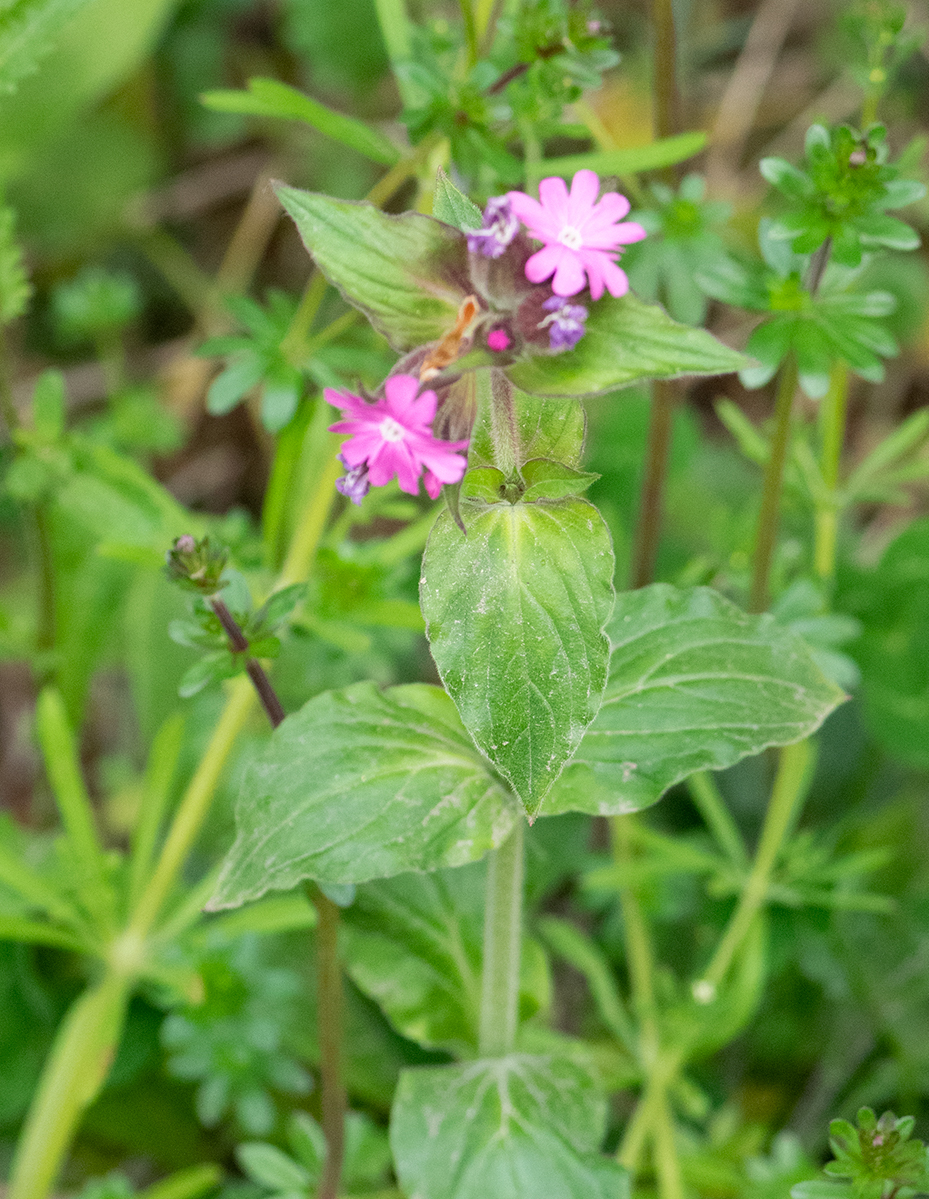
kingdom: Plantae
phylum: Tracheophyta
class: Magnoliopsida
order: Caryophyllales
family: Caryophyllaceae
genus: Silene
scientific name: Silene dioica
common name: Red campion
